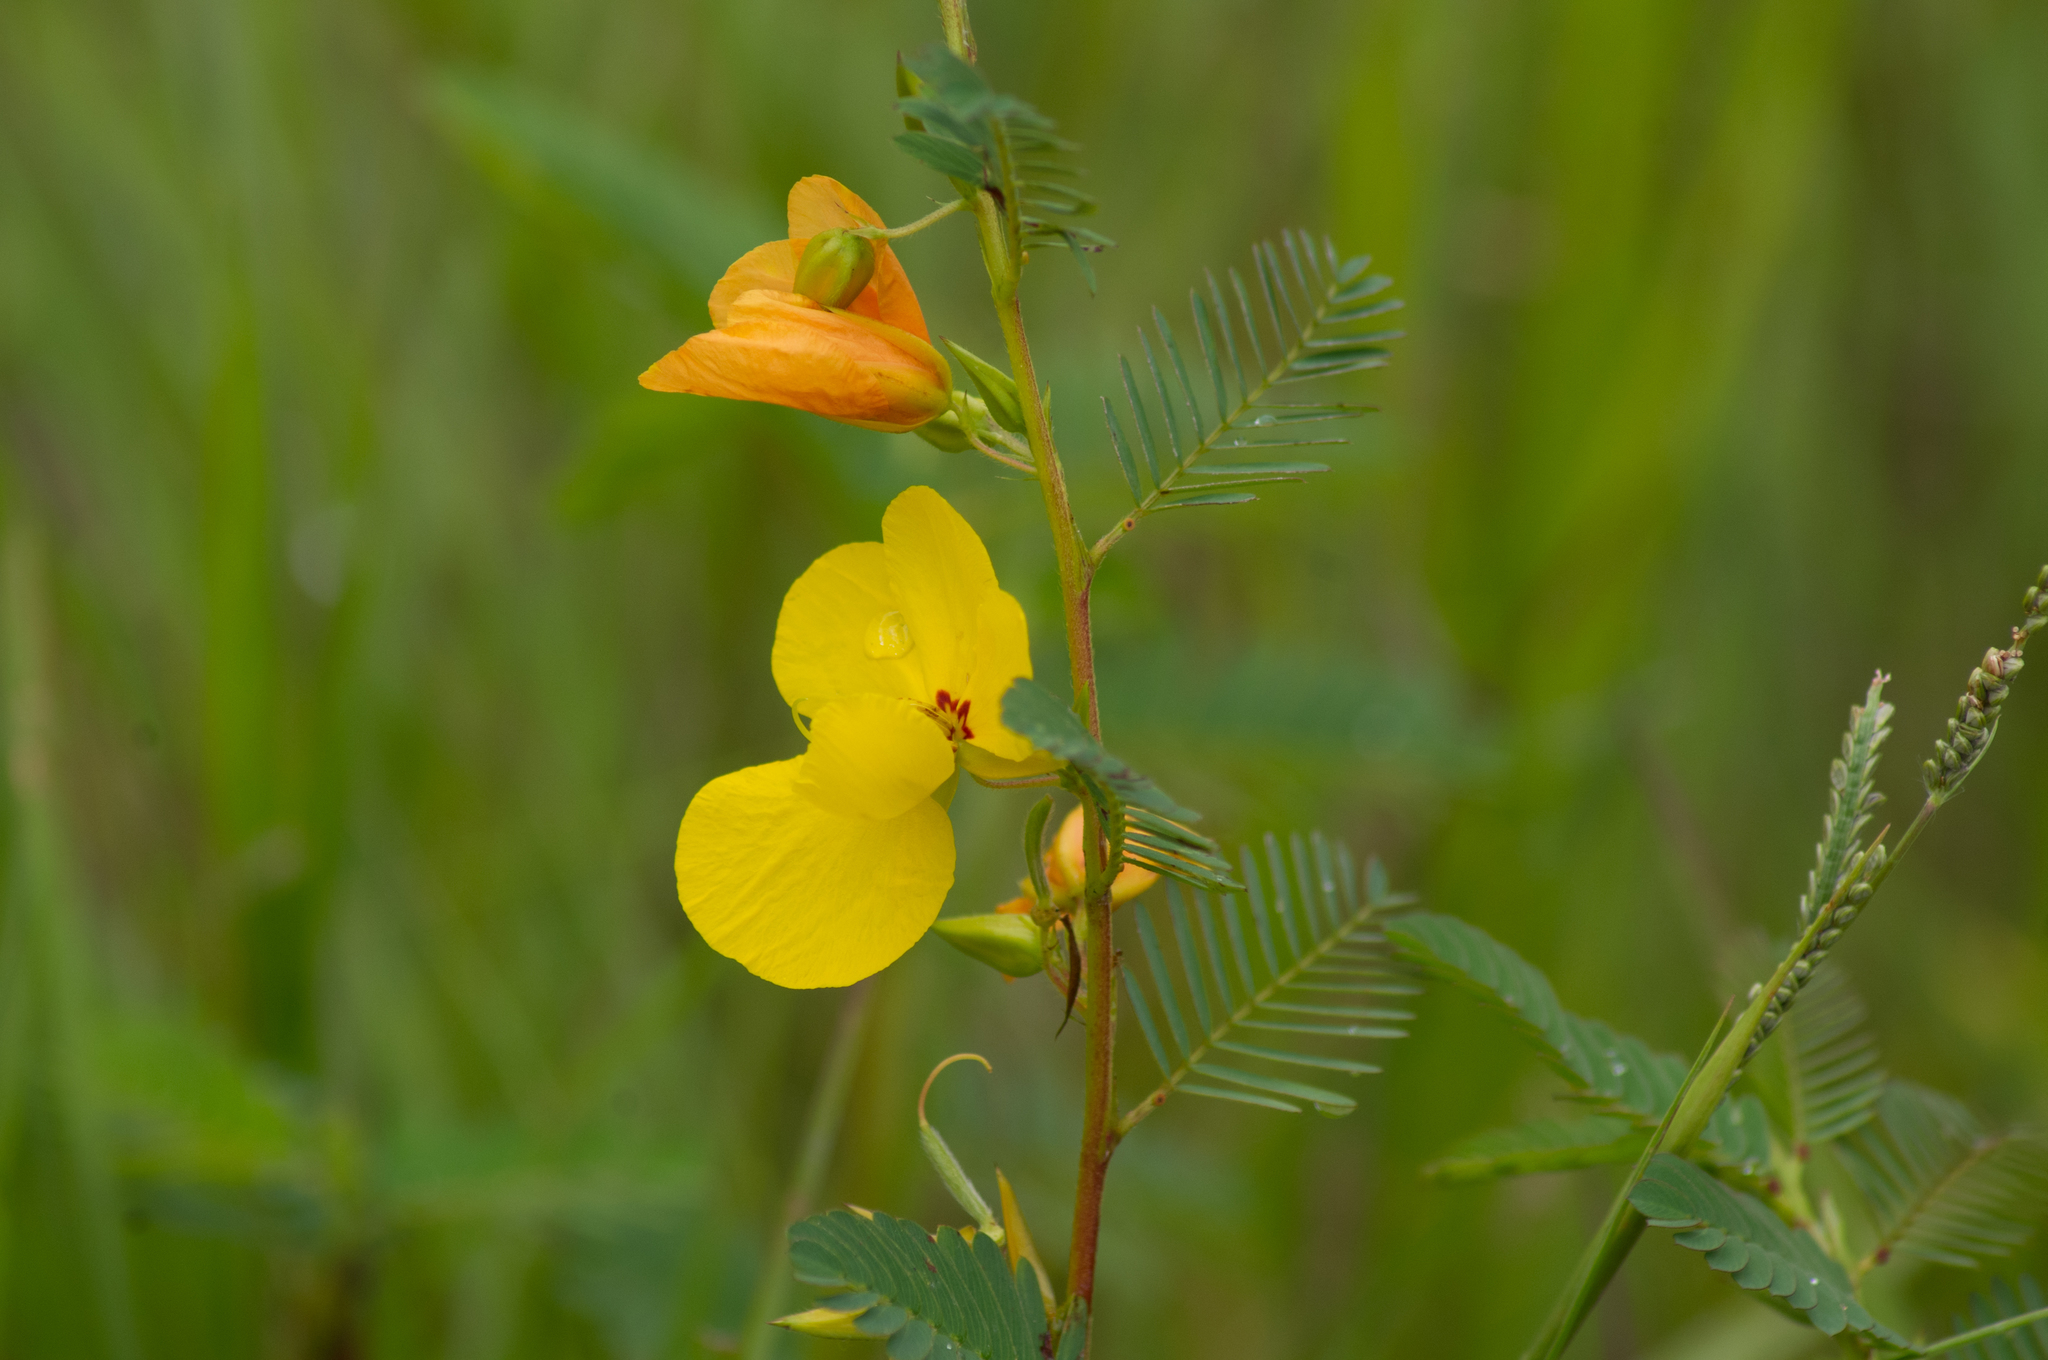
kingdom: Plantae
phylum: Tracheophyta
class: Magnoliopsida
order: Fabales
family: Fabaceae
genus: Chamaecrista
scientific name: Chamaecrista fasciculata
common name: Golden cassia
